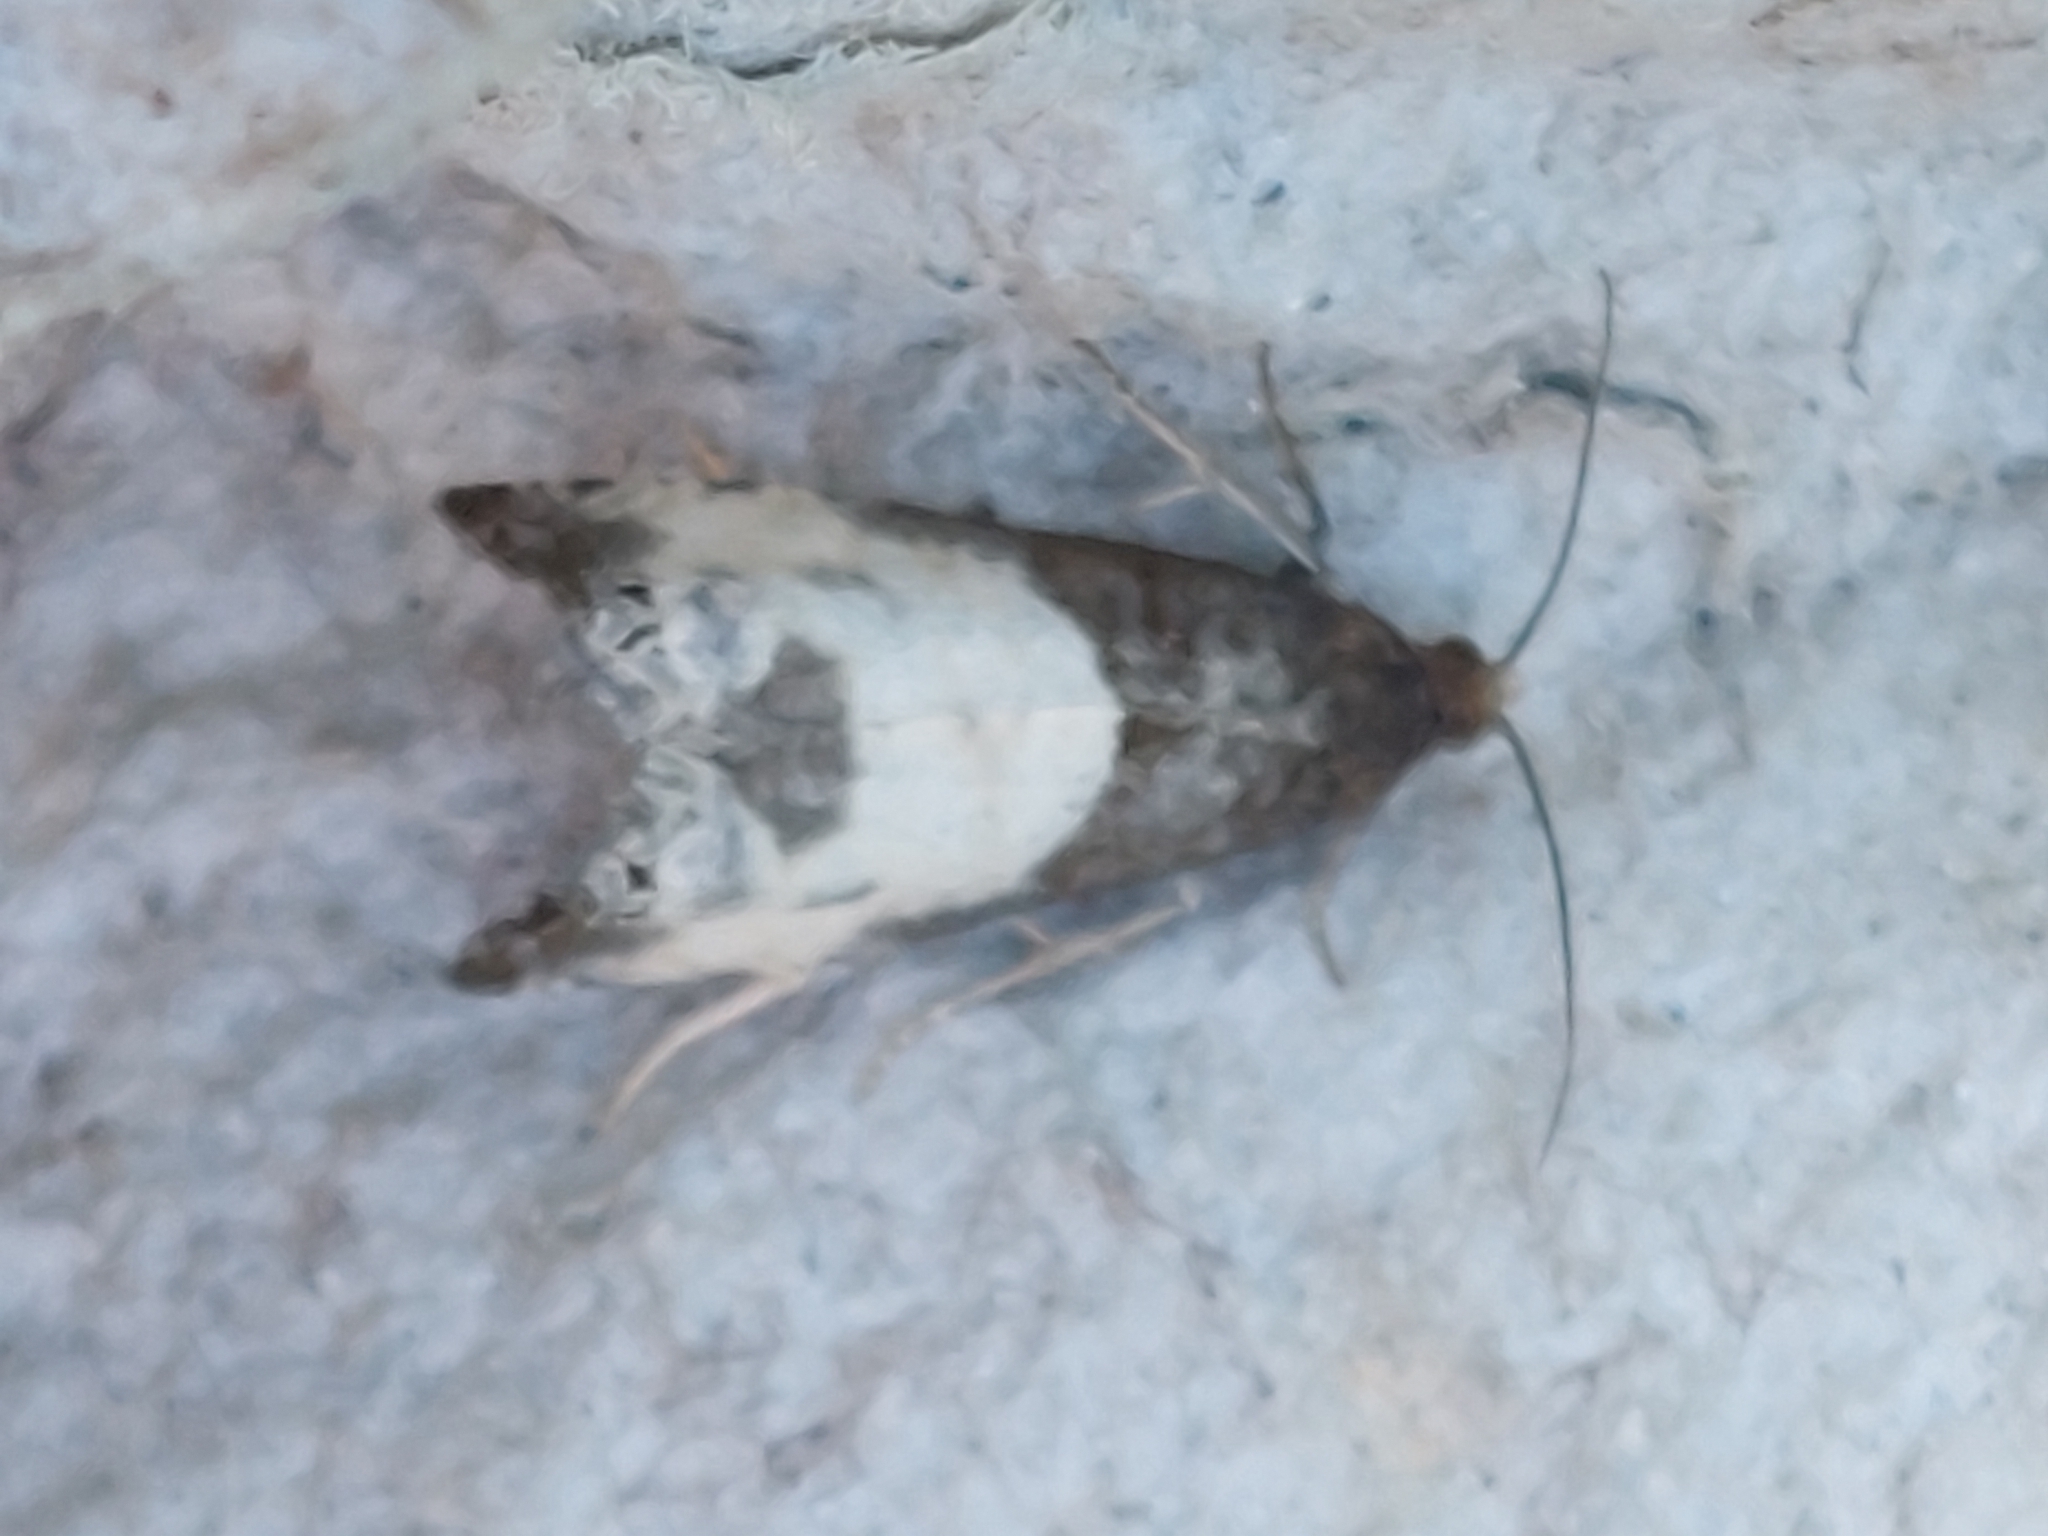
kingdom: Animalia
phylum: Arthropoda
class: Insecta
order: Lepidoptera
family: Tortricidae
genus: Notocelia
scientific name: Notocelia cynosbatella
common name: Yellow-faced bell moth
